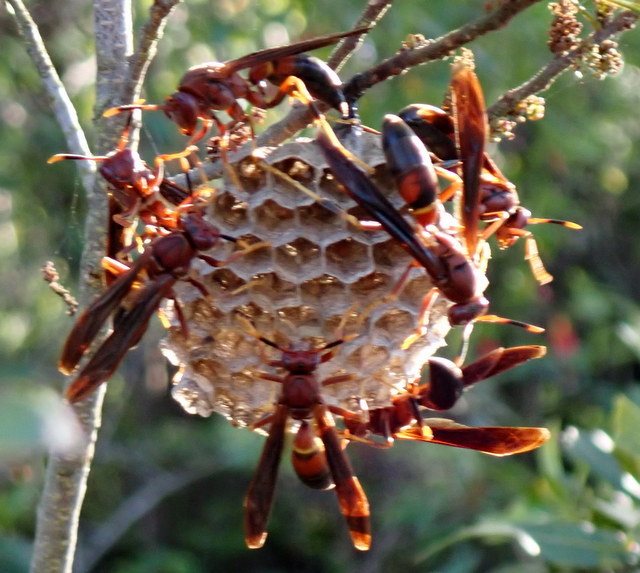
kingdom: Animalia
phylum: Arthropoda
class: Insecta
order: Hymenoptera
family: Eumenidae
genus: Polistes
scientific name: Polistes annularis
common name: Ringed paper wasp
